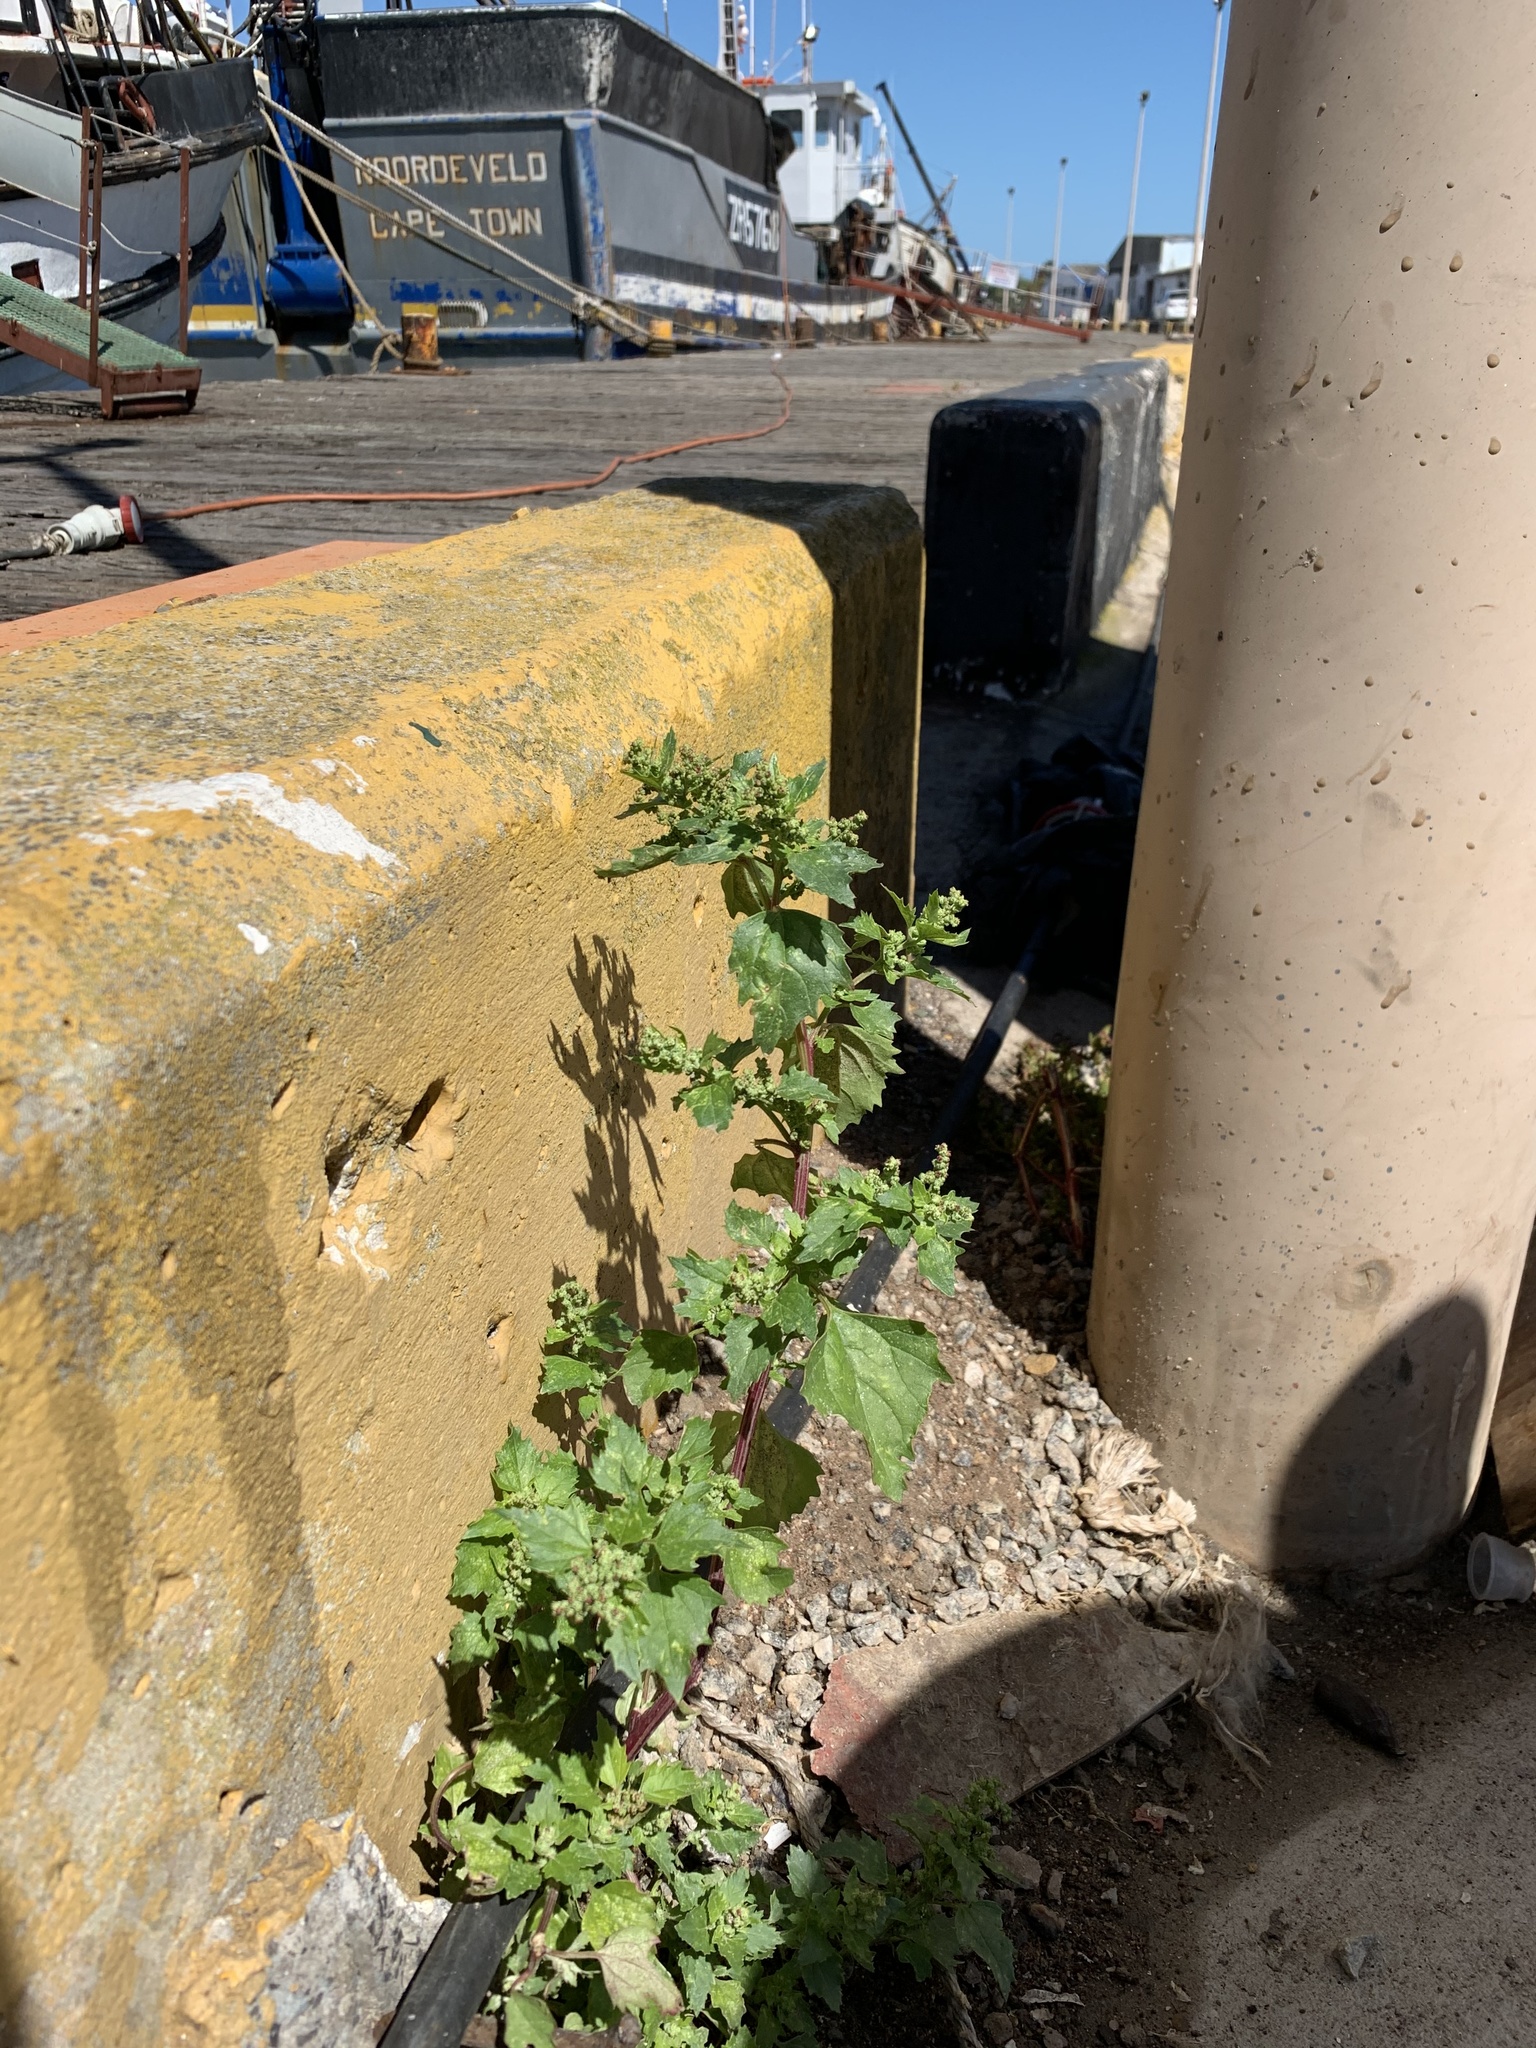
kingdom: Plantae
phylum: Tracheophyta
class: Magnoliopsida
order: Caryophyllales
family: Amaranthaceae
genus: Chenopodiastrum
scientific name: Chenopodiastrum murale
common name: Sowbane
